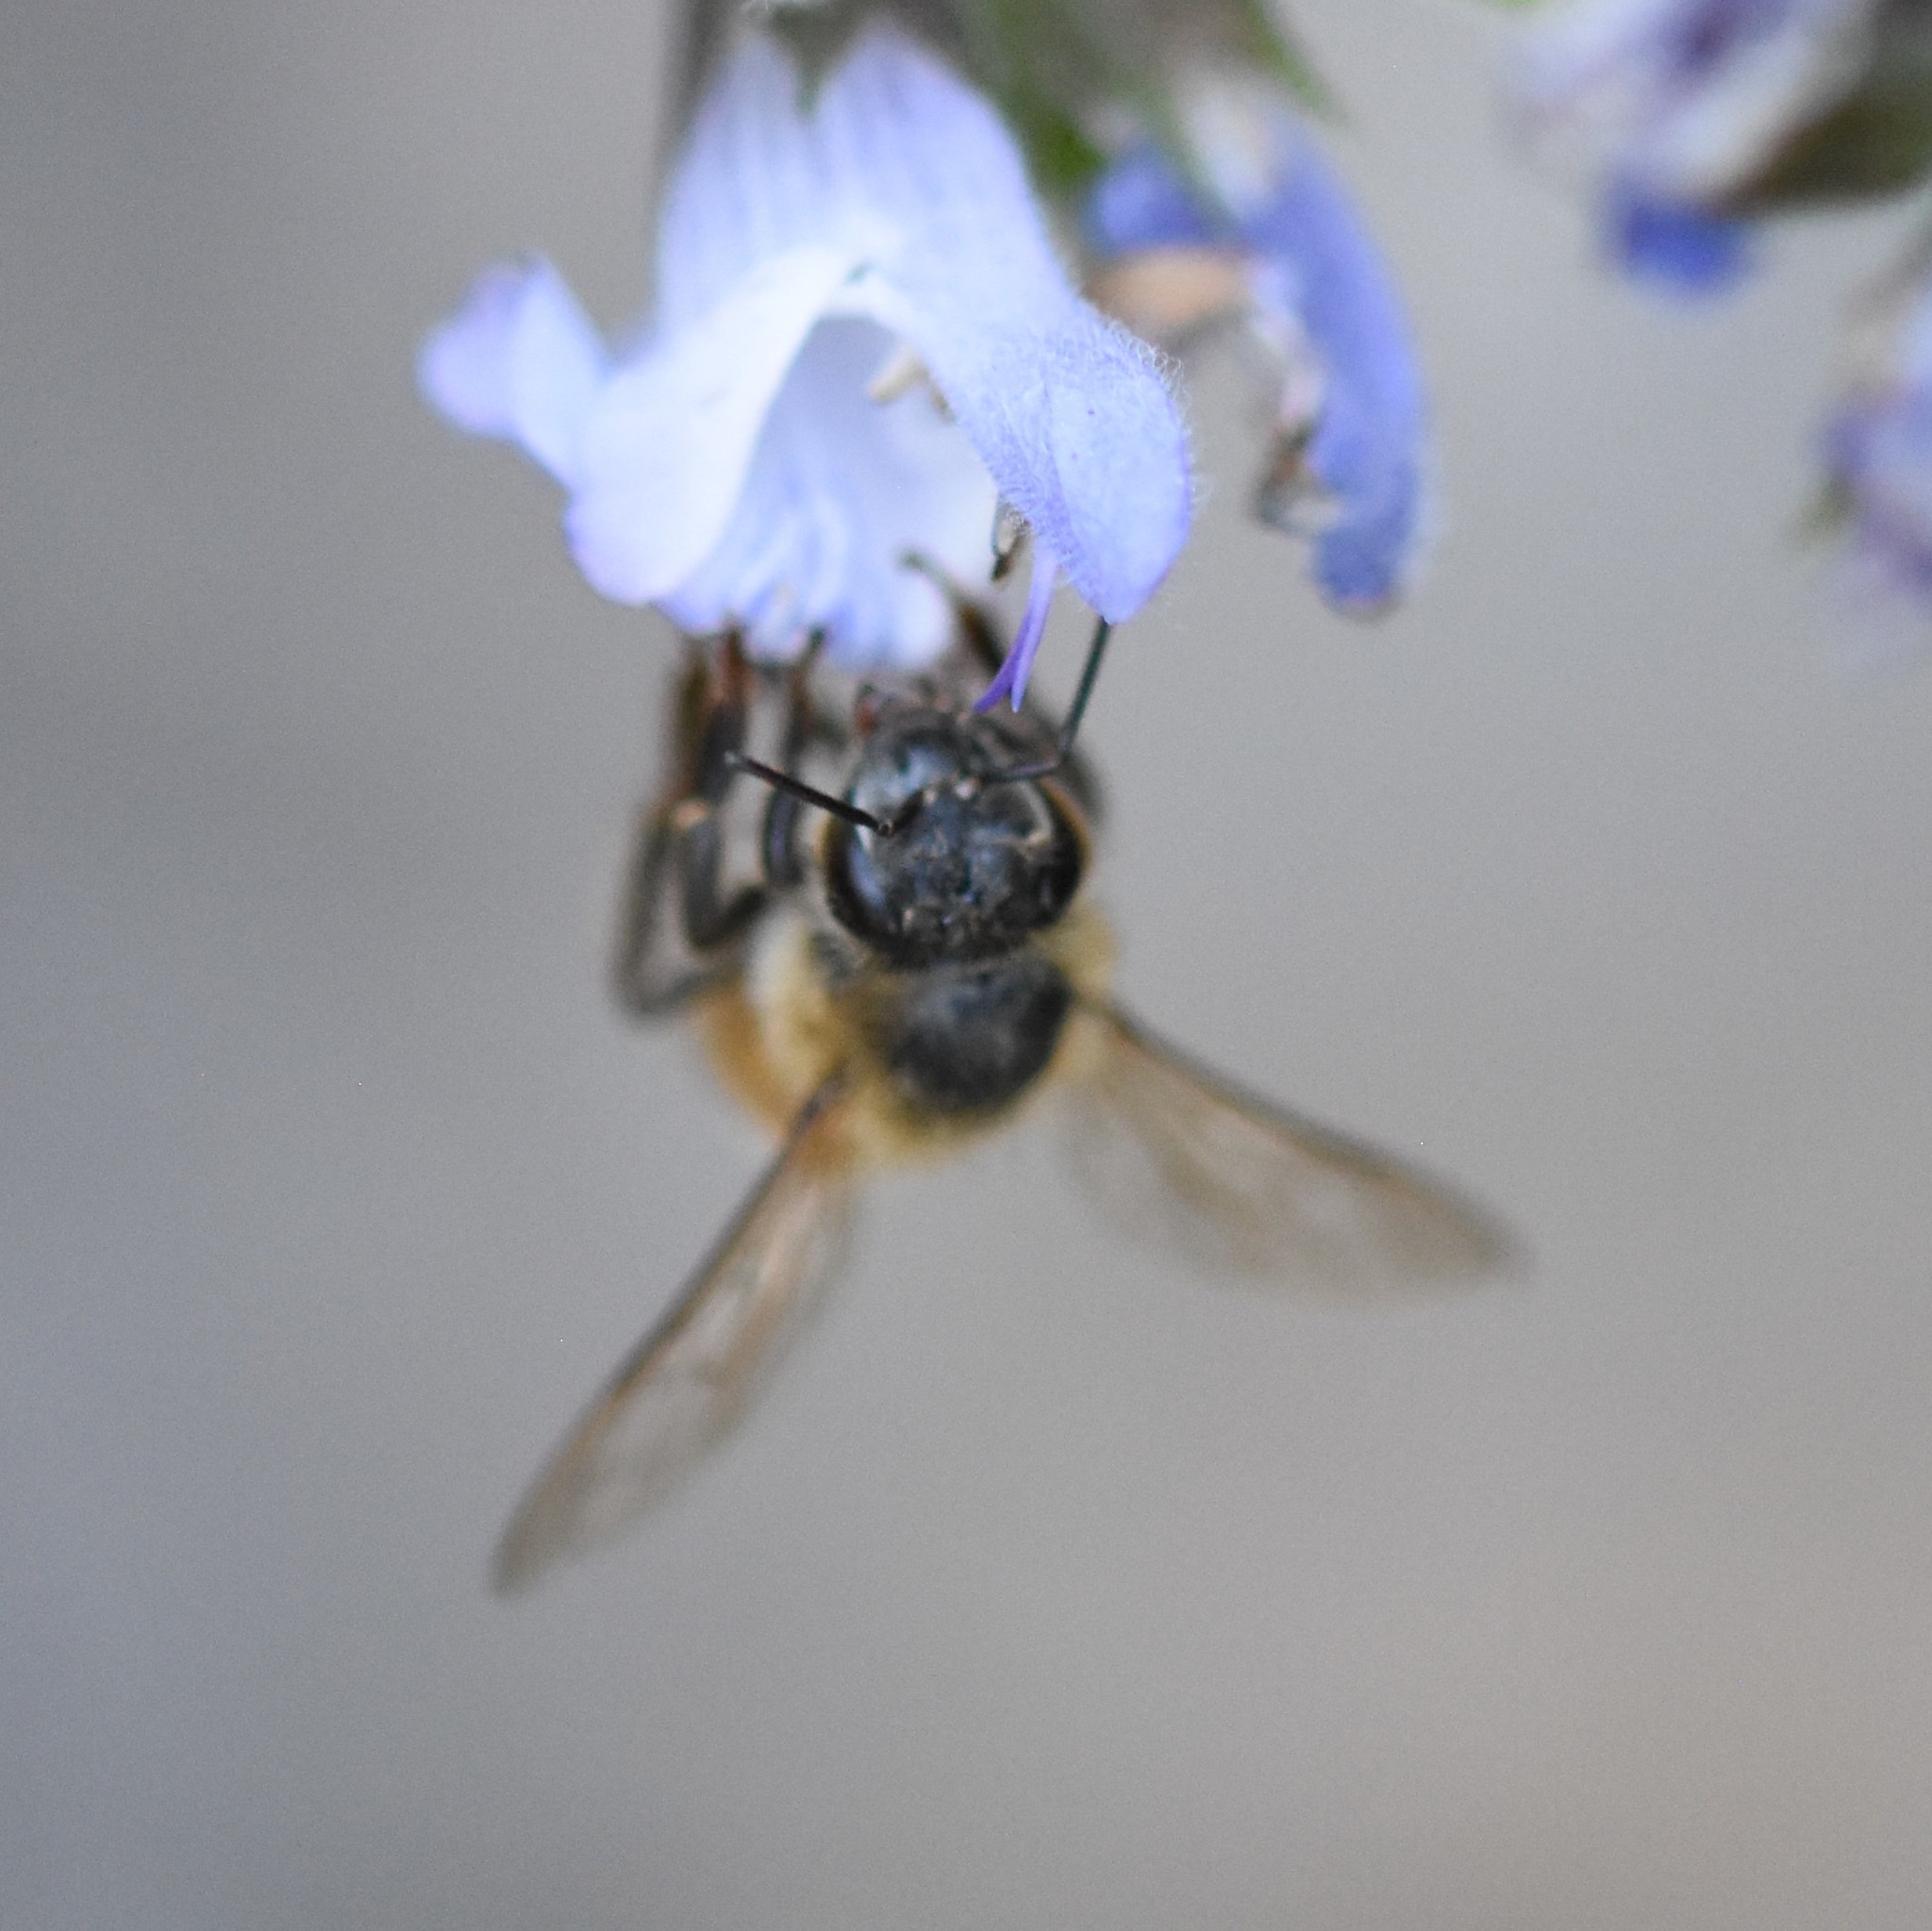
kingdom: Animalia
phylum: Arthropoda
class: Insecta
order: Hymenoptera
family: Apidae
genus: Apis
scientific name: Apis mellifera
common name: Honey bee
